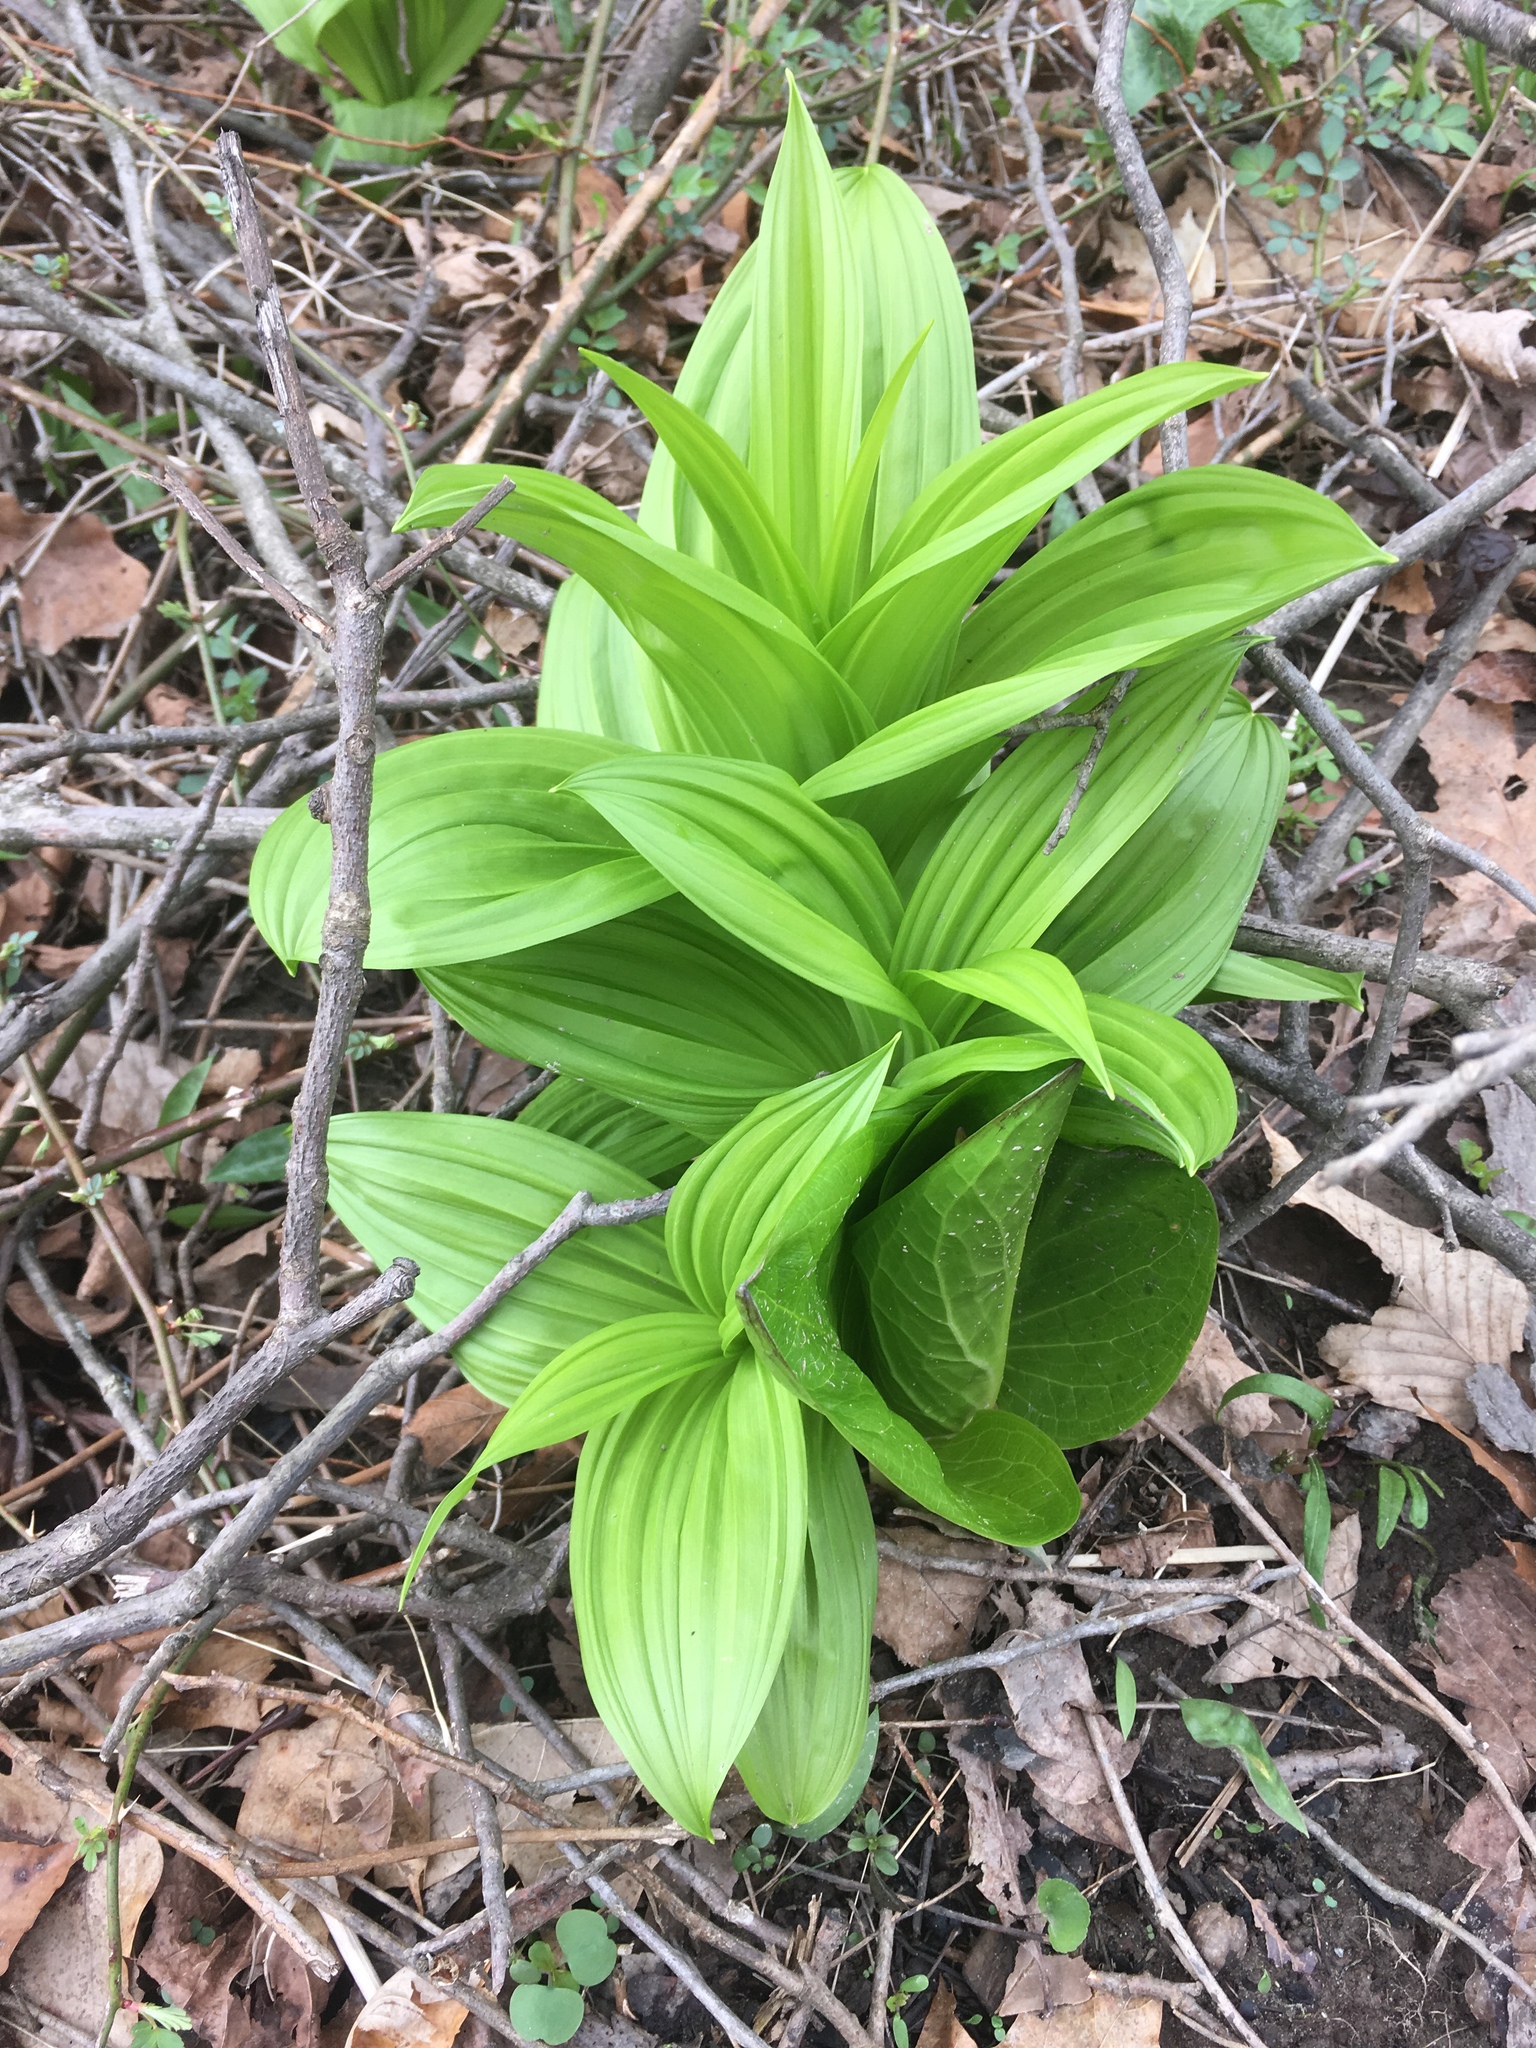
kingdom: Plantae
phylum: Tracheophyta
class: Liliopsida
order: Liliales
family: Melanthiaceae
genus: Veratrum
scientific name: Veratrum viride
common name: American false hellebore
